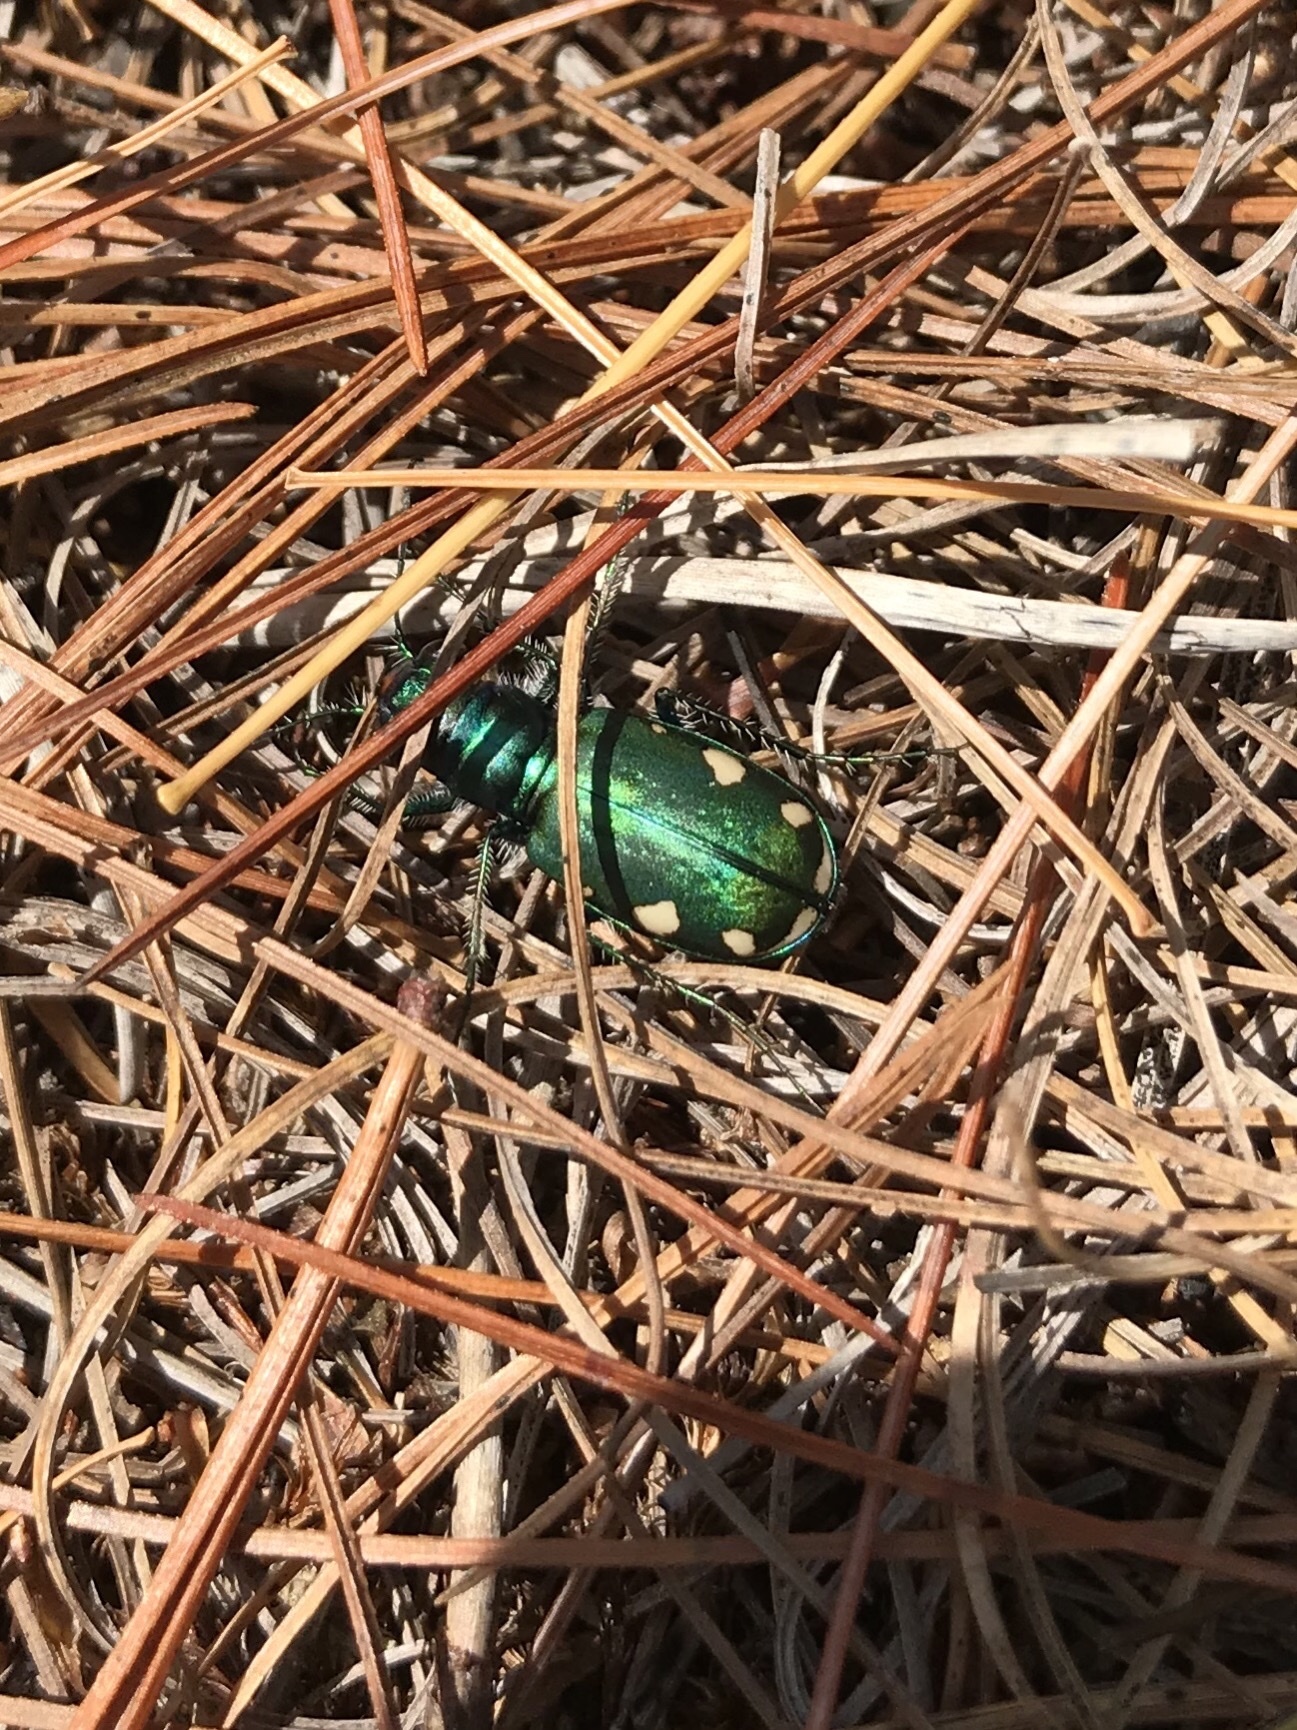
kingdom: Animalia
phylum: Arthropoda
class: Insecta
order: Coleoptera
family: Carabidae
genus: Cicindela
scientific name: Cicindela scutellaris
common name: Festive tiger beetle
